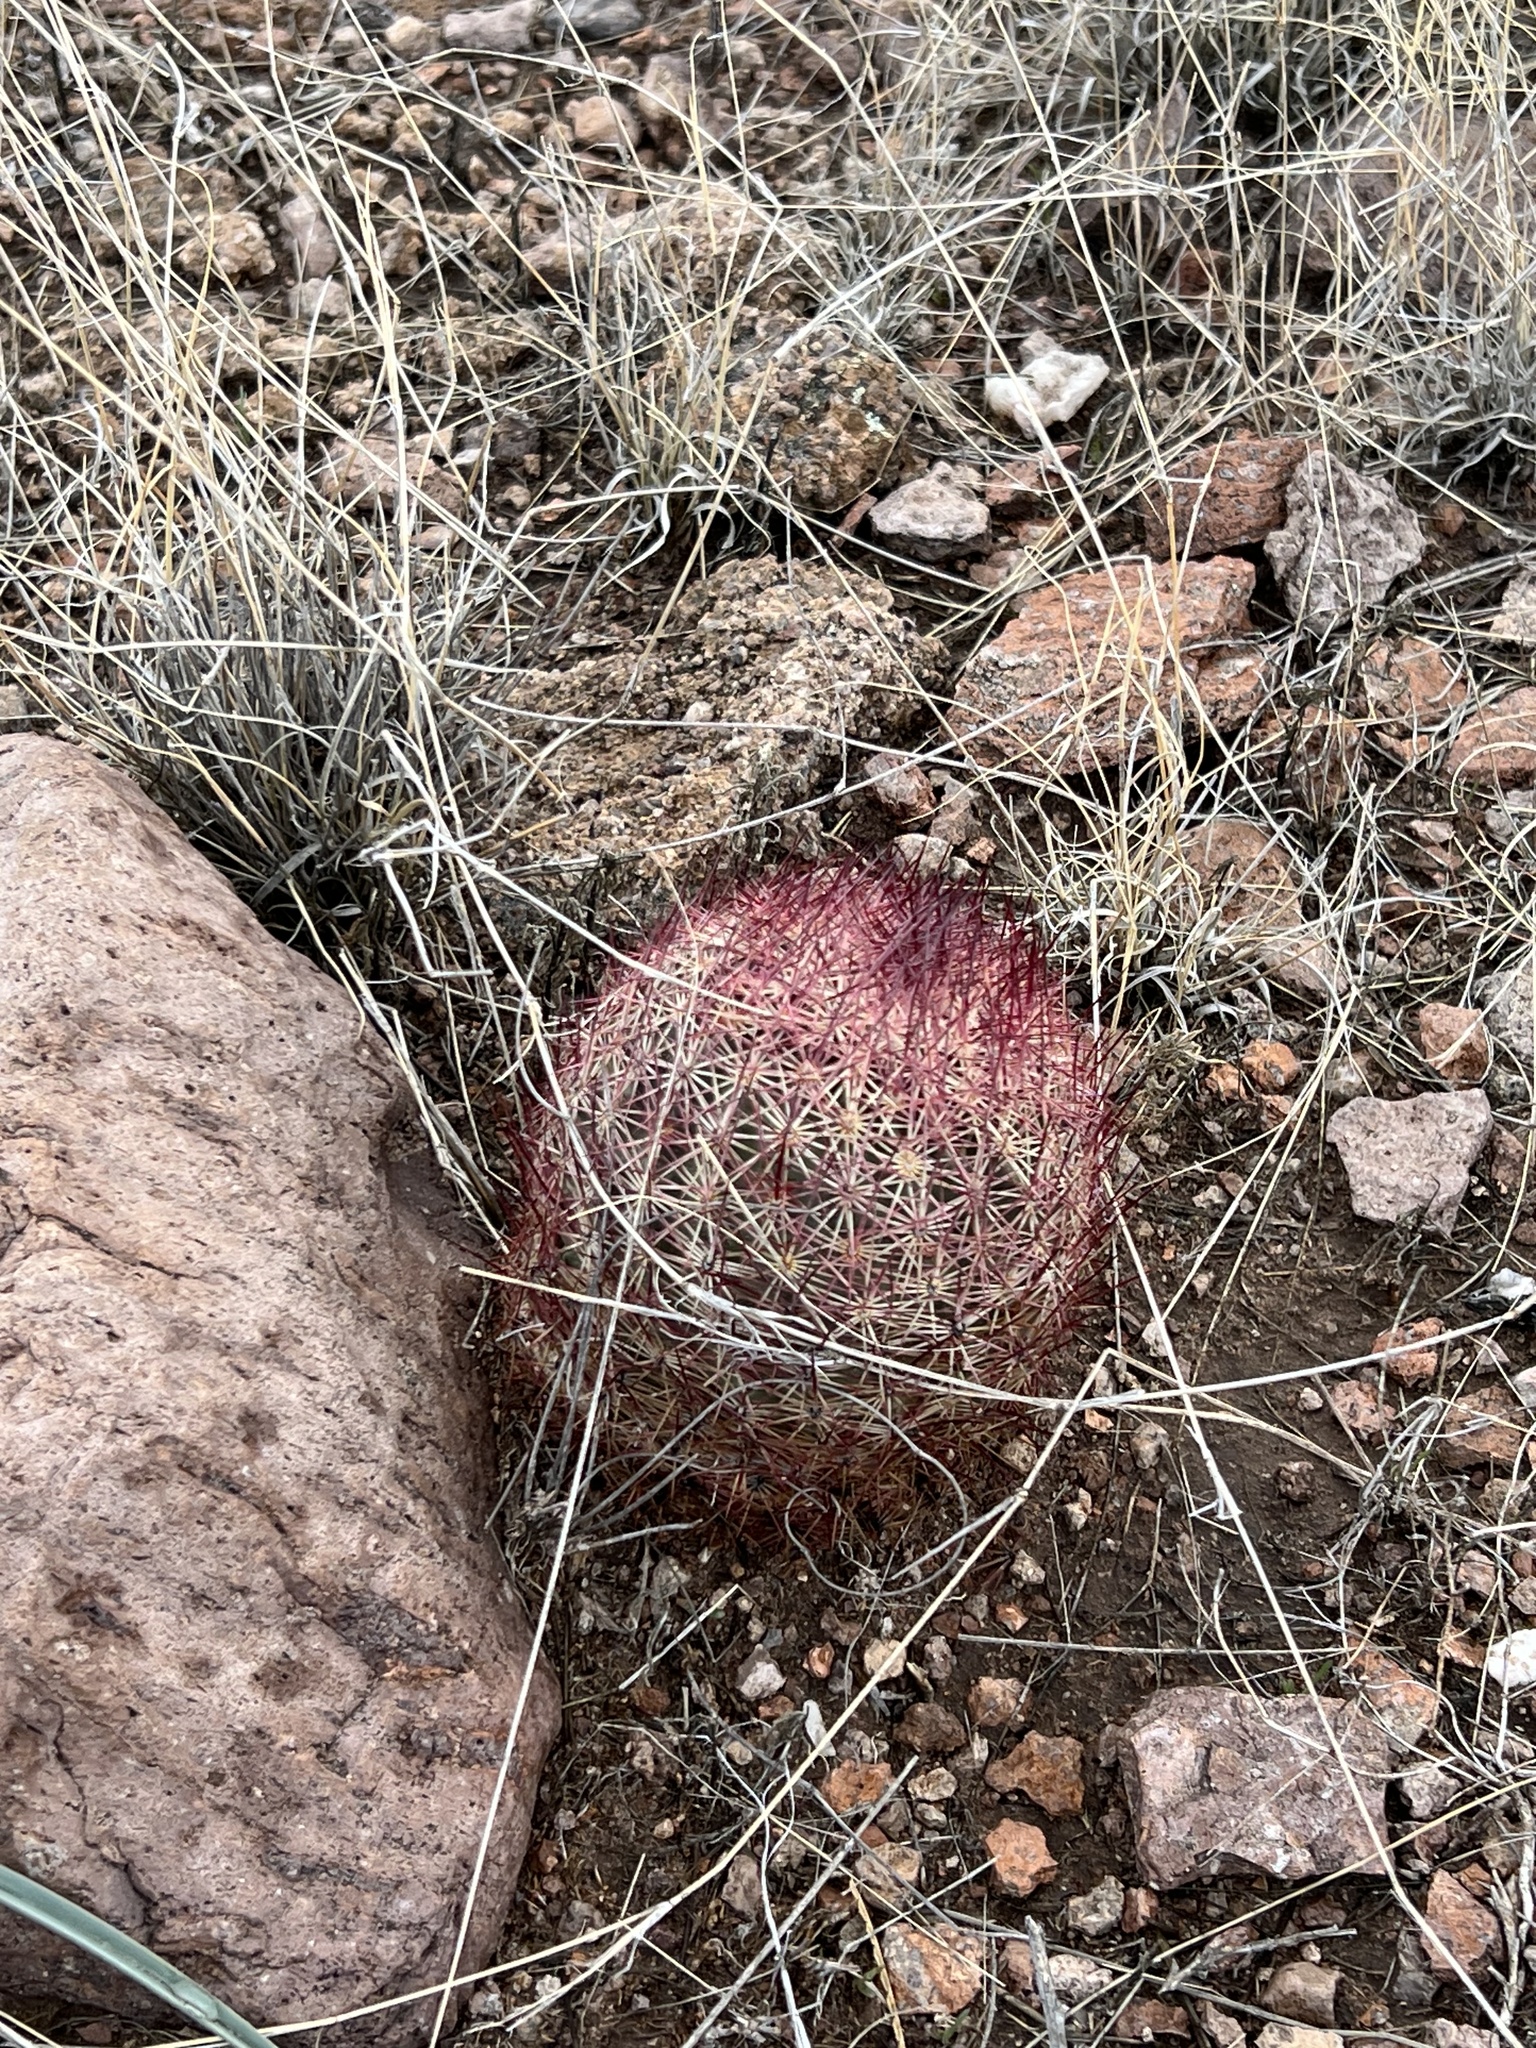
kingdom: Plantae
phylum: Tracheophyta
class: Magnoliopsida
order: Caryophyllales
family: Cactaceae
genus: Sclerocactus
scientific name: Sclerocactus johnsonii
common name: Eight-spine fishhook cactus
